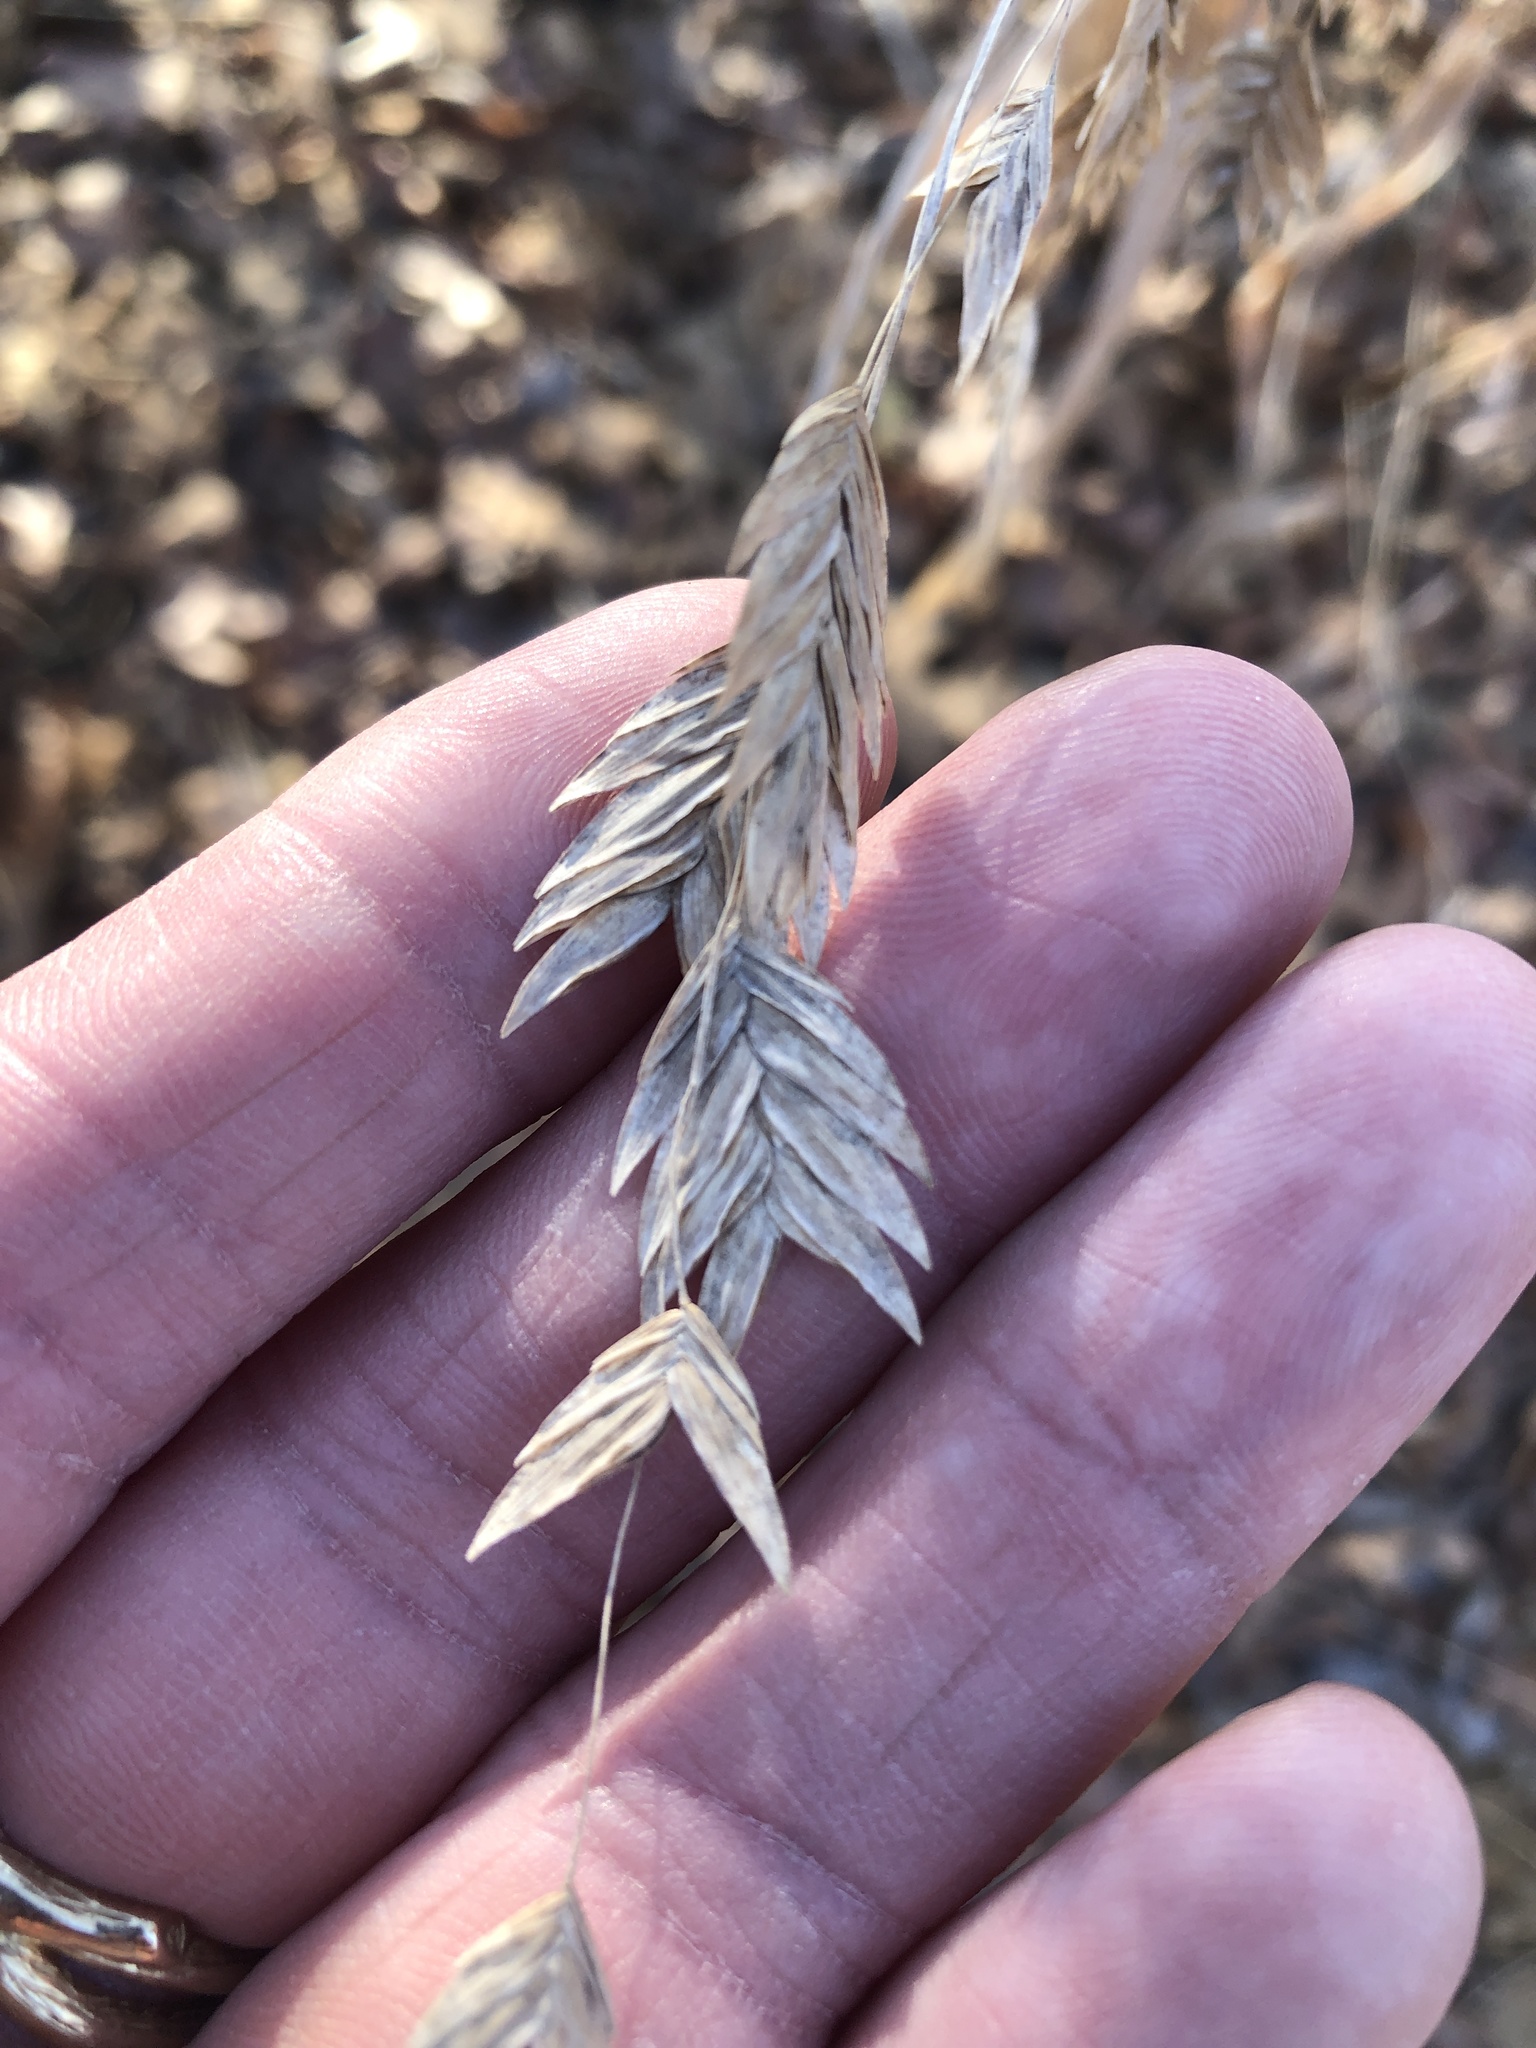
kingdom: Plantae
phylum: Tracheophyta
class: Liliopsida
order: Poales
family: Poaceae
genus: Chasmanthium
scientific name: Chasmanthium latifolium
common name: Broad-leaved chasmanthium
